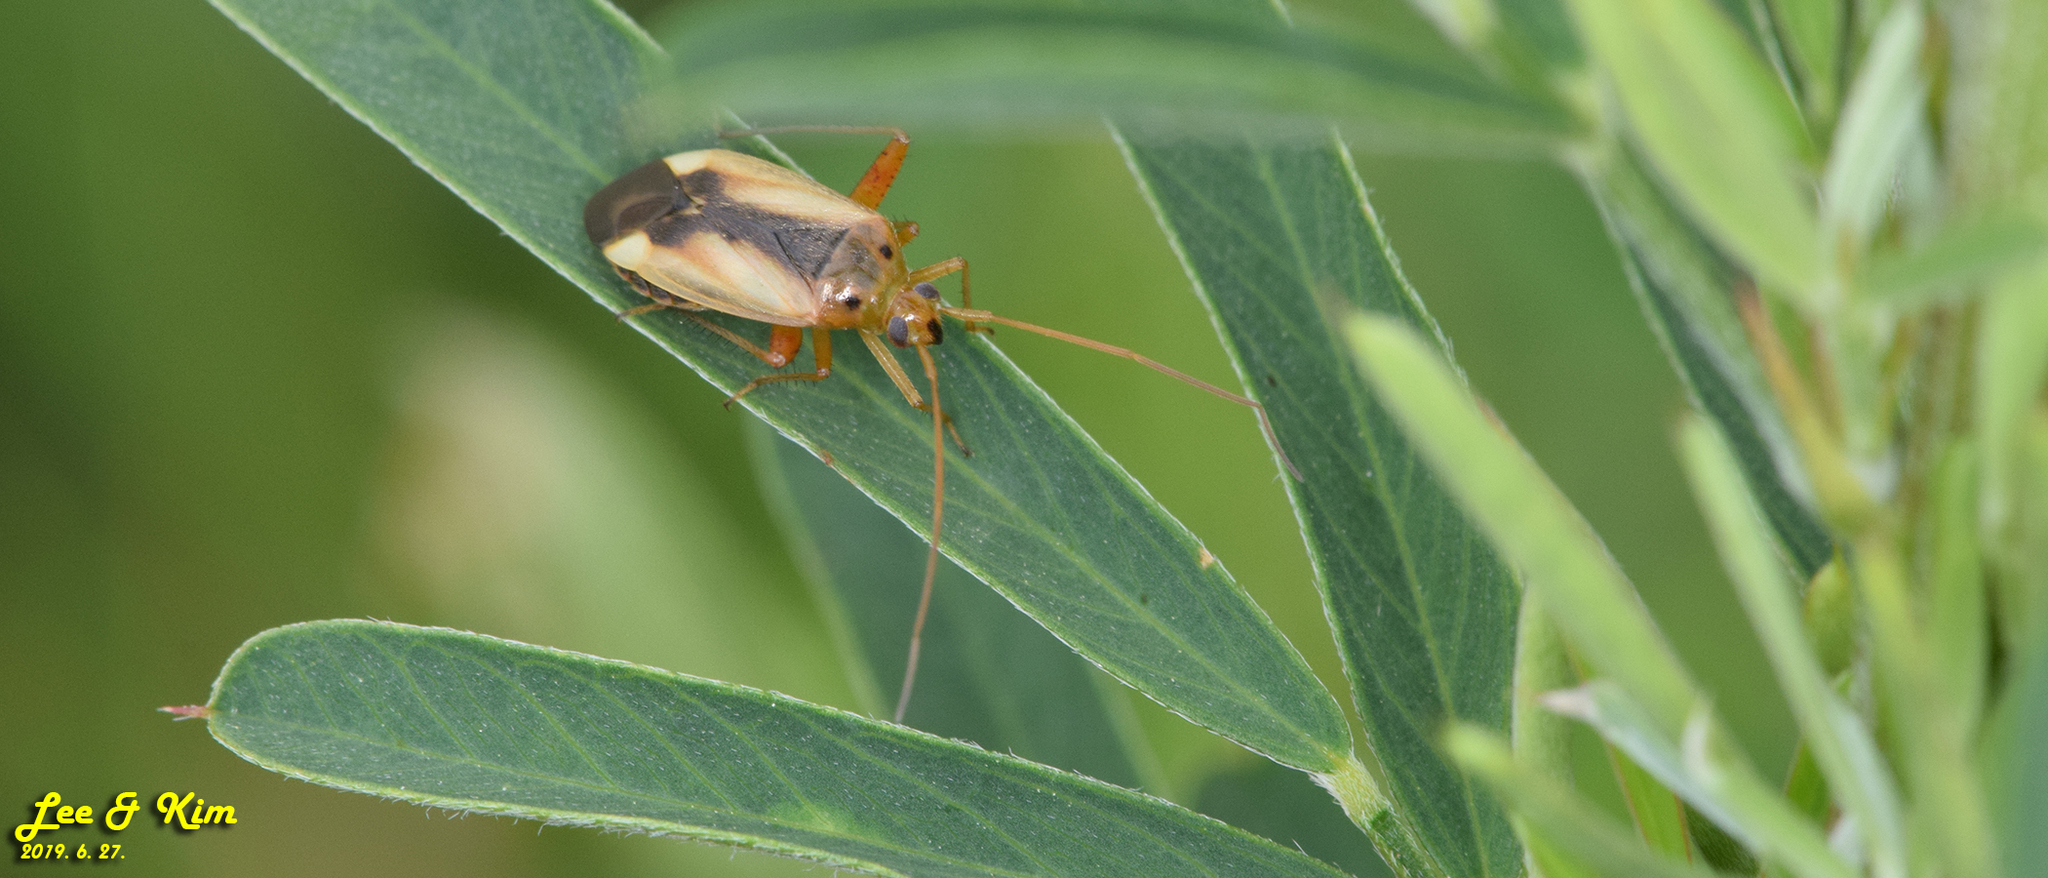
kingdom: Animalia
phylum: Arthropoda
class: Insecta
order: Hemiptera
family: Miridae
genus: Adelphocoris
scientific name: Adelphocoris suturalis
